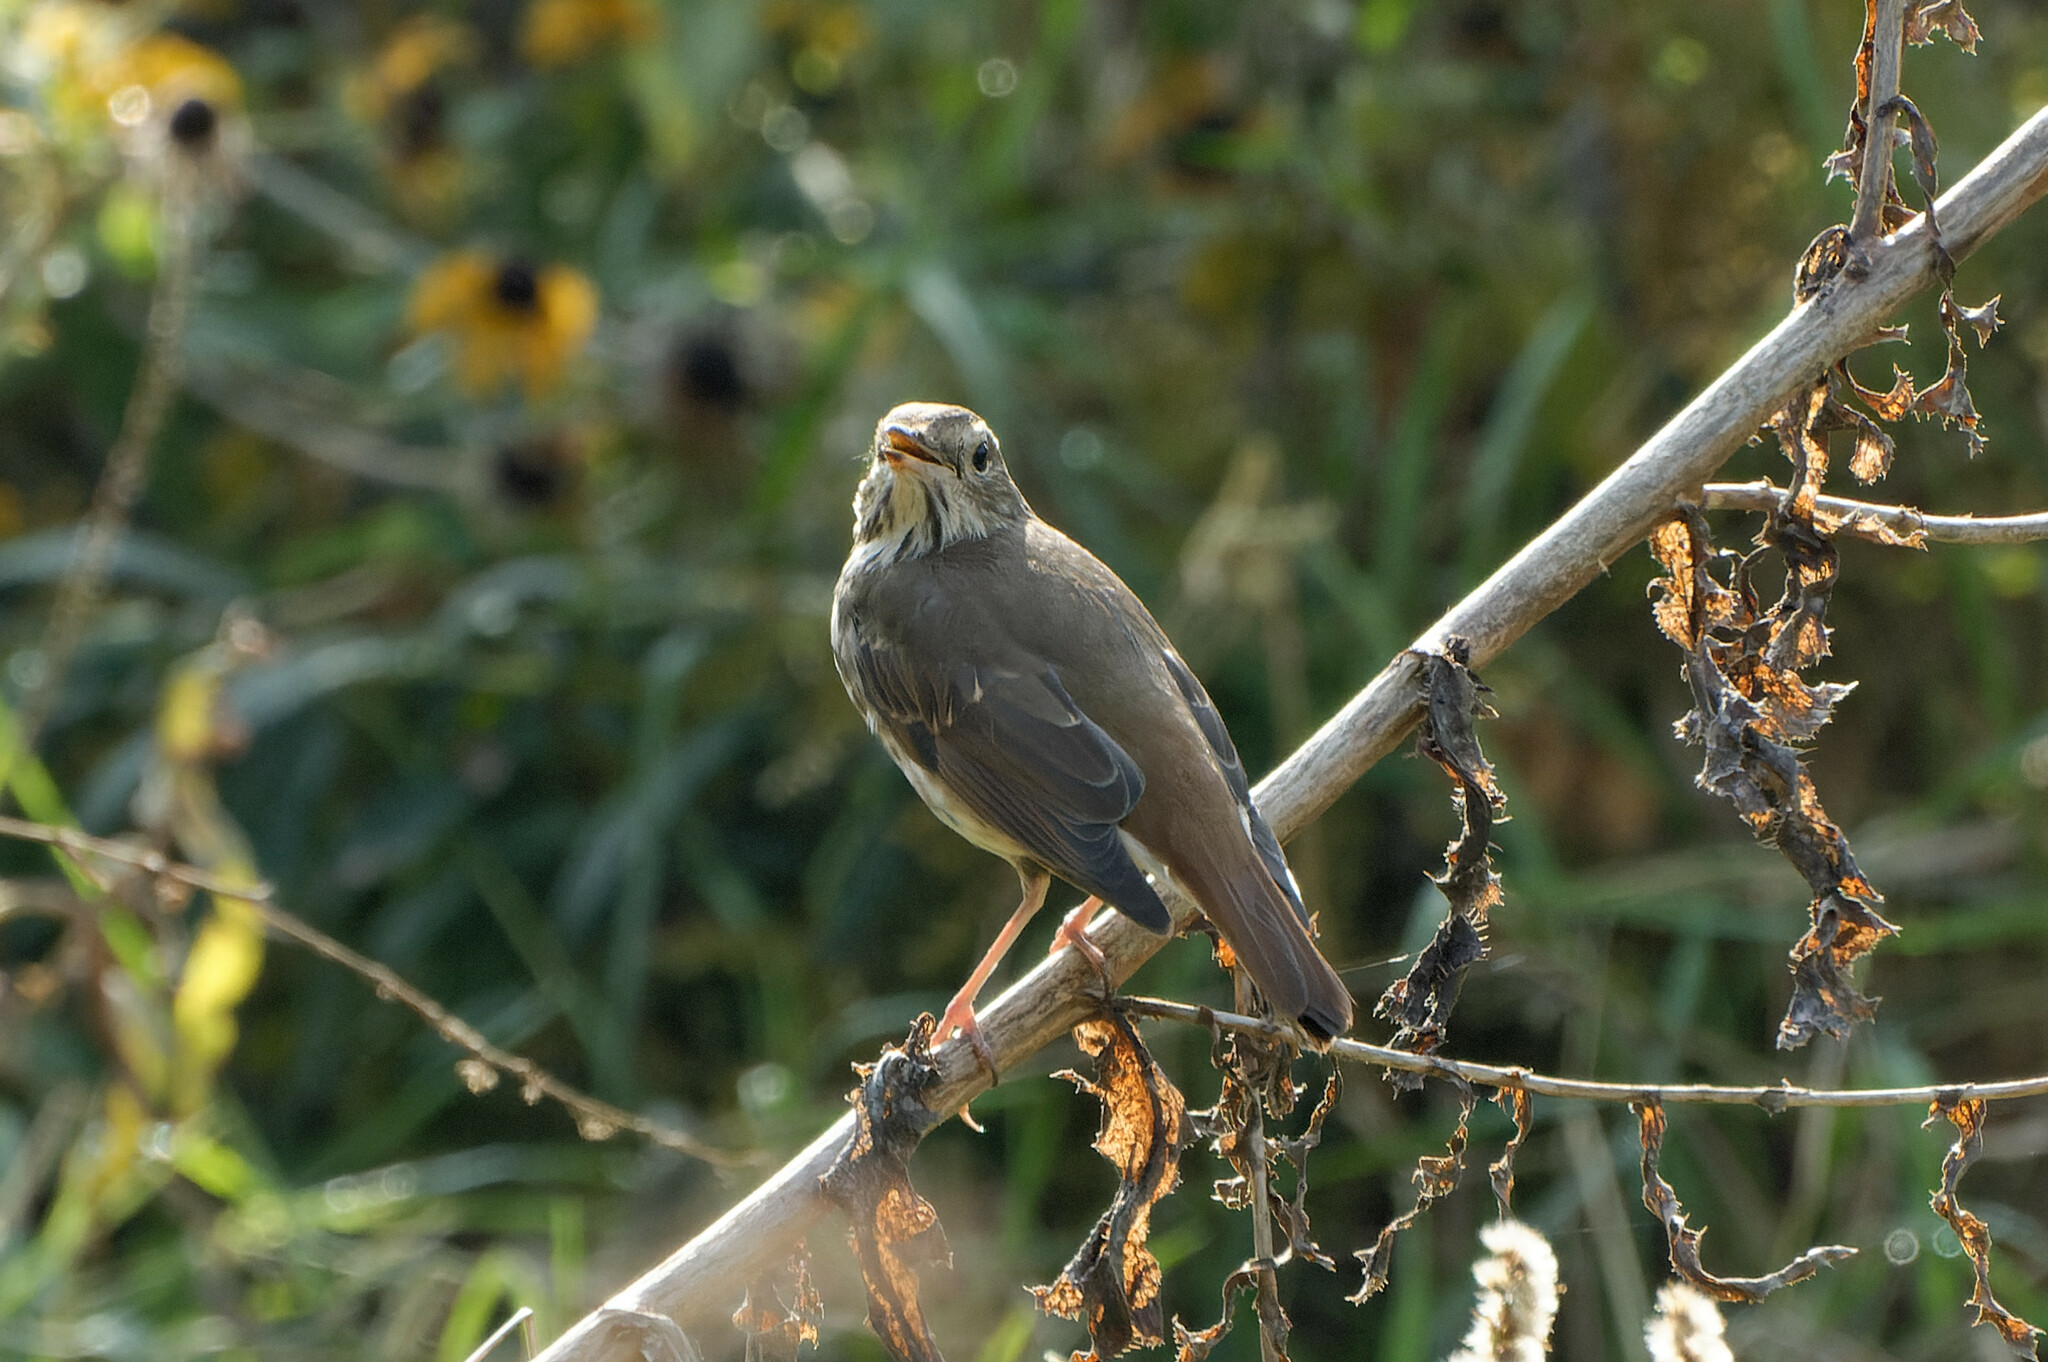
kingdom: Animalia
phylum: Chordata
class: Aves
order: Passeriformes
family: Turdidae
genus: Catharus
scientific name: Catharus guttatus
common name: Hermit thrush
